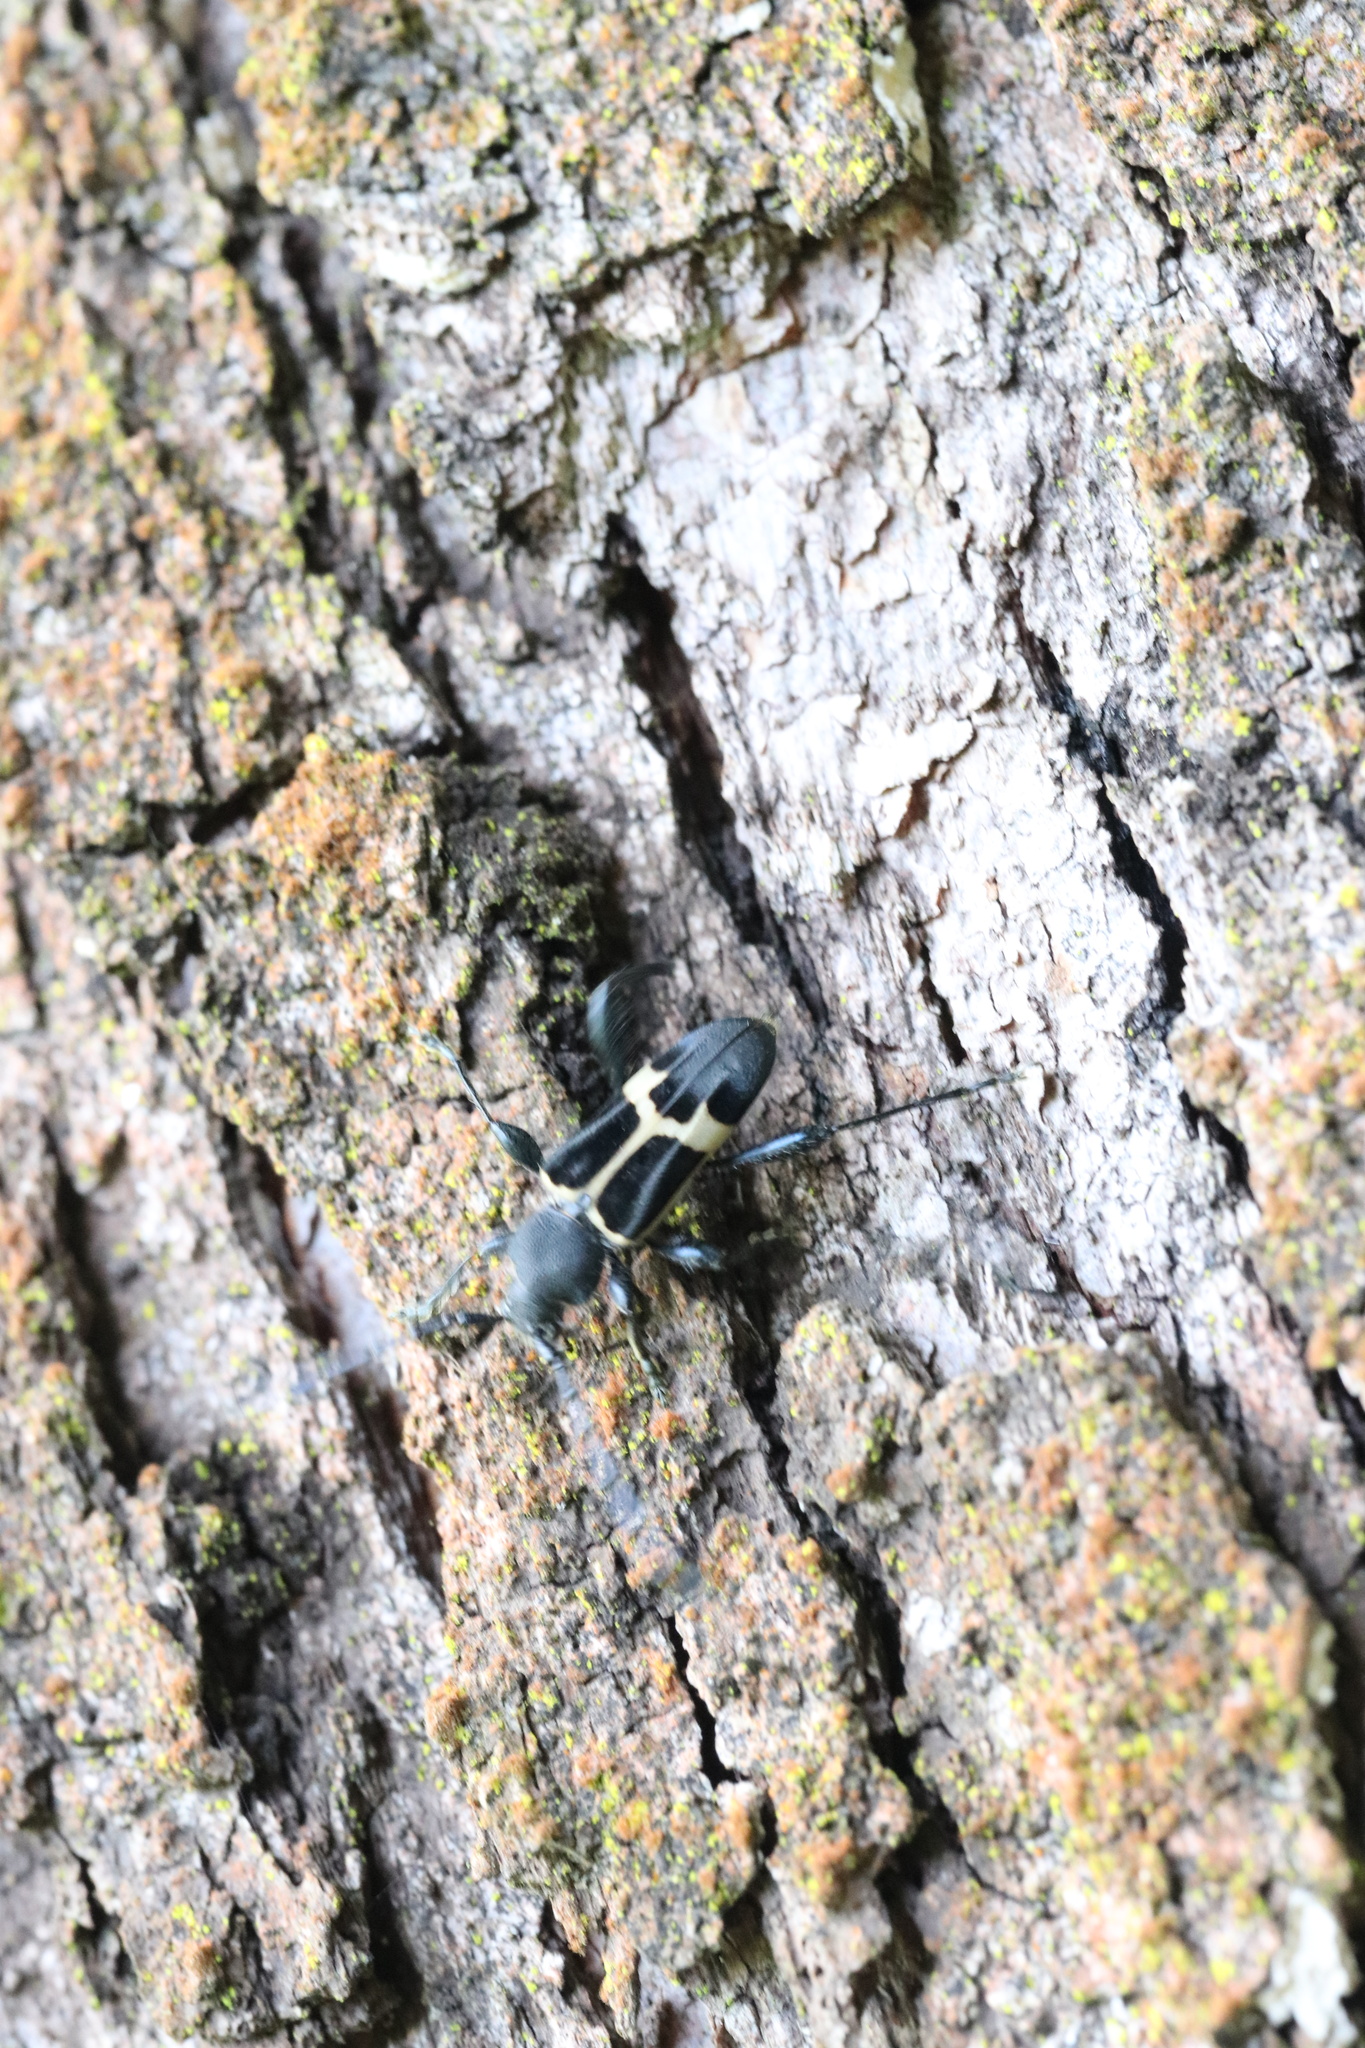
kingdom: Animalia
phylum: Arthropoda
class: Insecta
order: Coleoptera
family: Cerambycidae
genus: Calydon
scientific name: Calydon submetallicum
